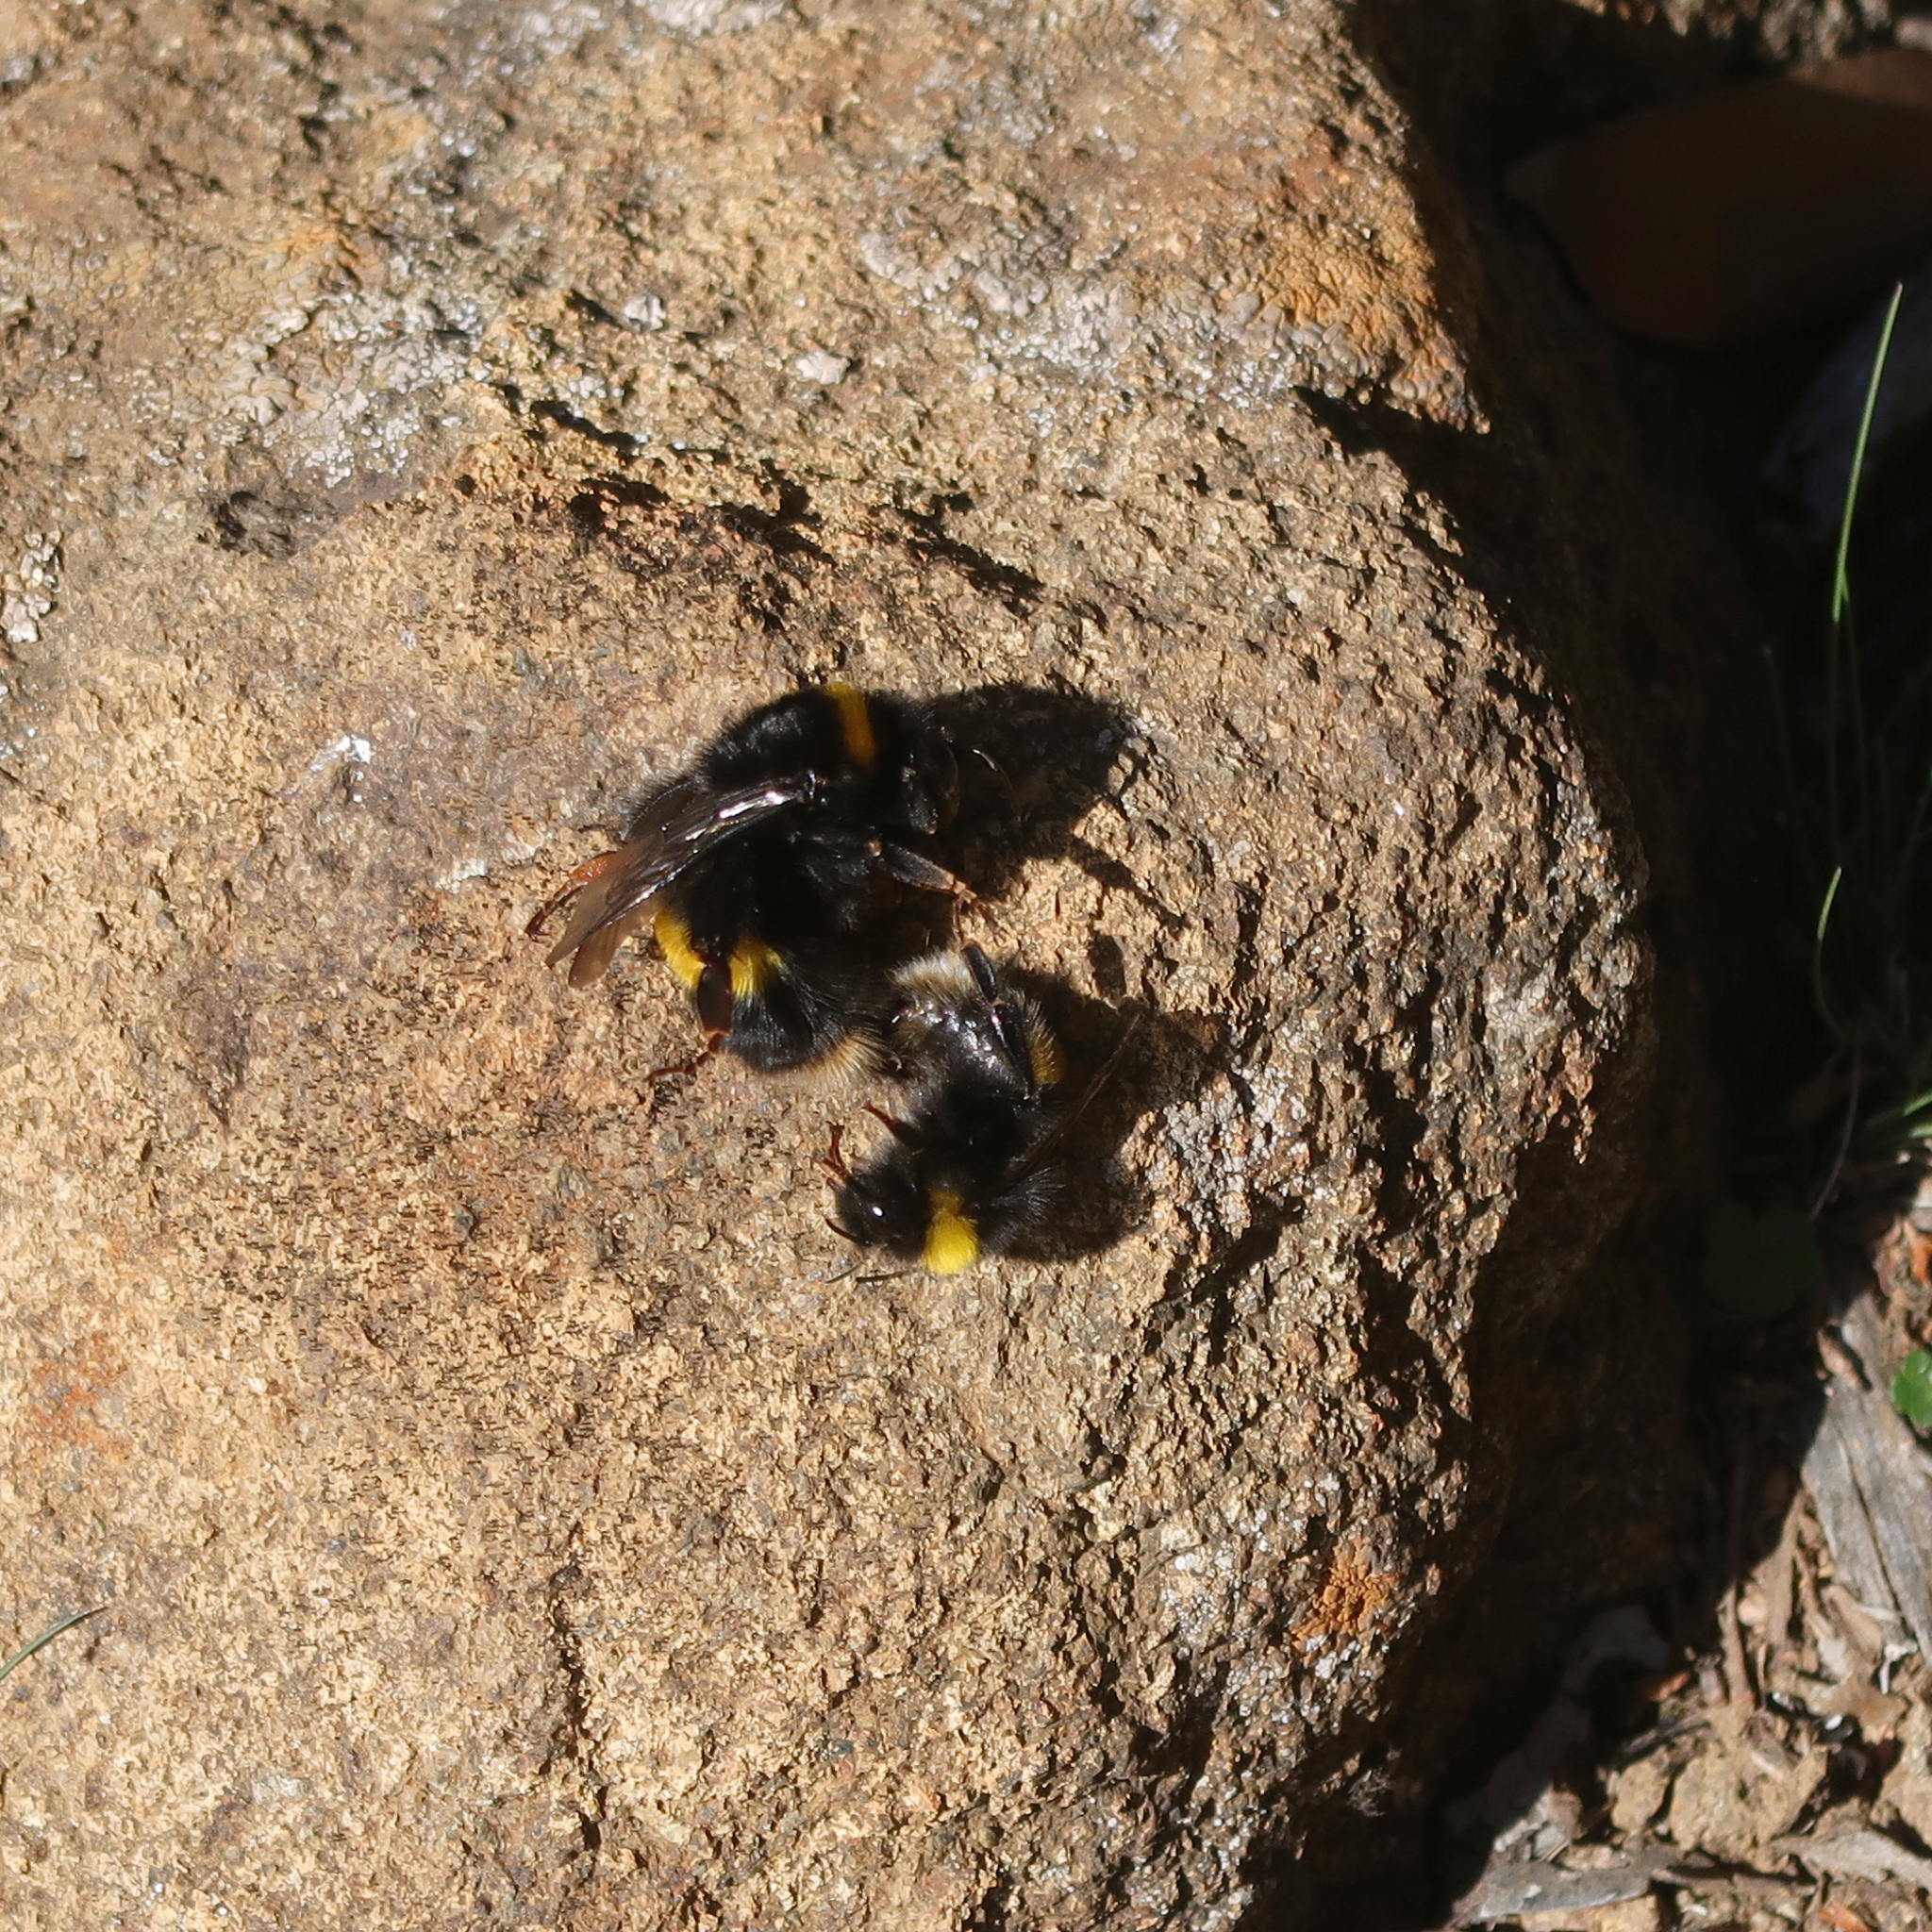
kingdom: Animalia
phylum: Arthropoda
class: Insecta
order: Hymenoptera
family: Apidae
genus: Bombus
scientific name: Bombus terrestris
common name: Buff-tailed bumblebee
